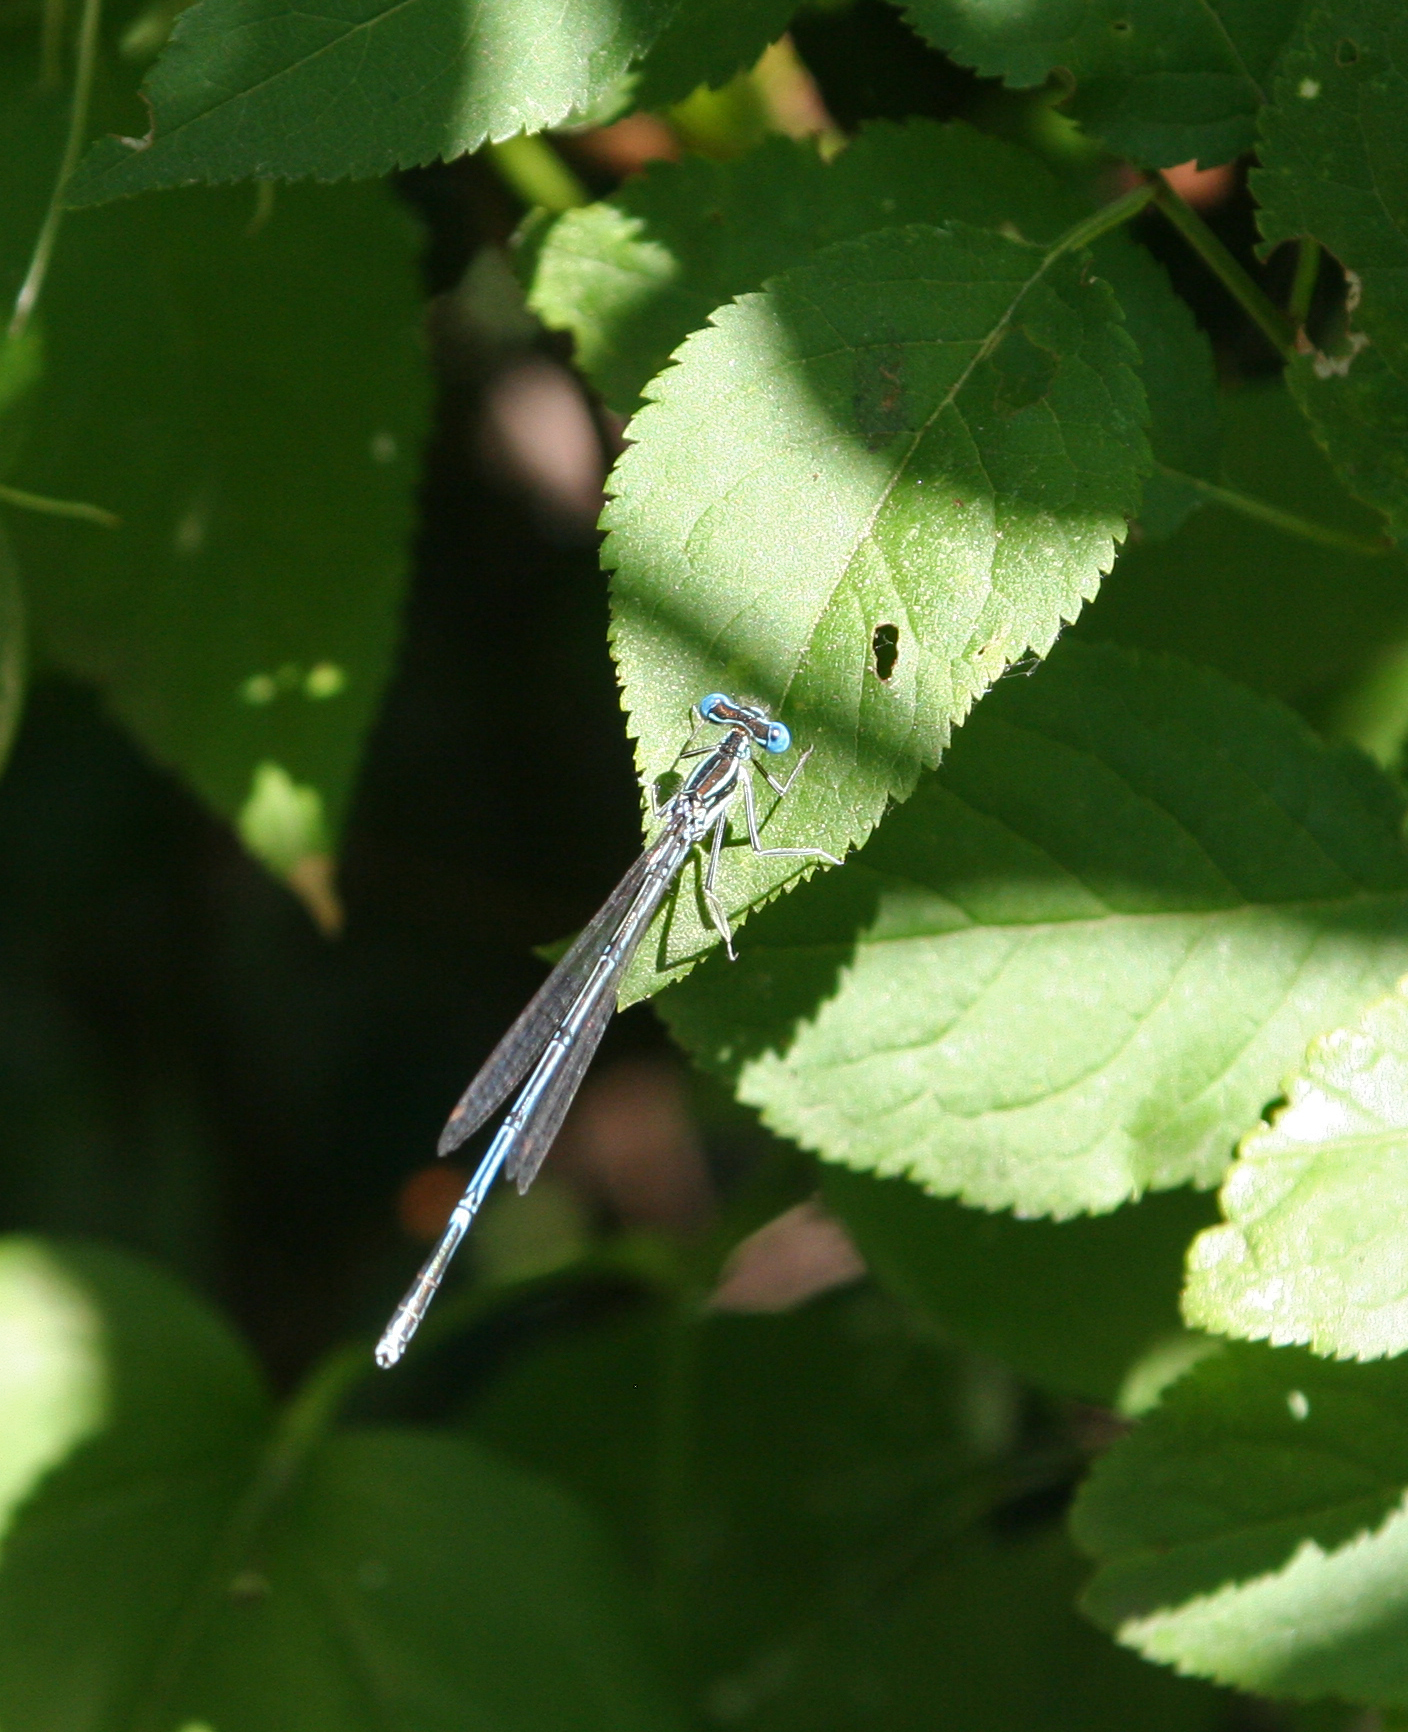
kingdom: Animalia
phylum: Arthropoda
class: Insecta
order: Odonata
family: Platycnemididae
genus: Platycnemis
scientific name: Platycnemis pennipes
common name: White-legged damselfly
